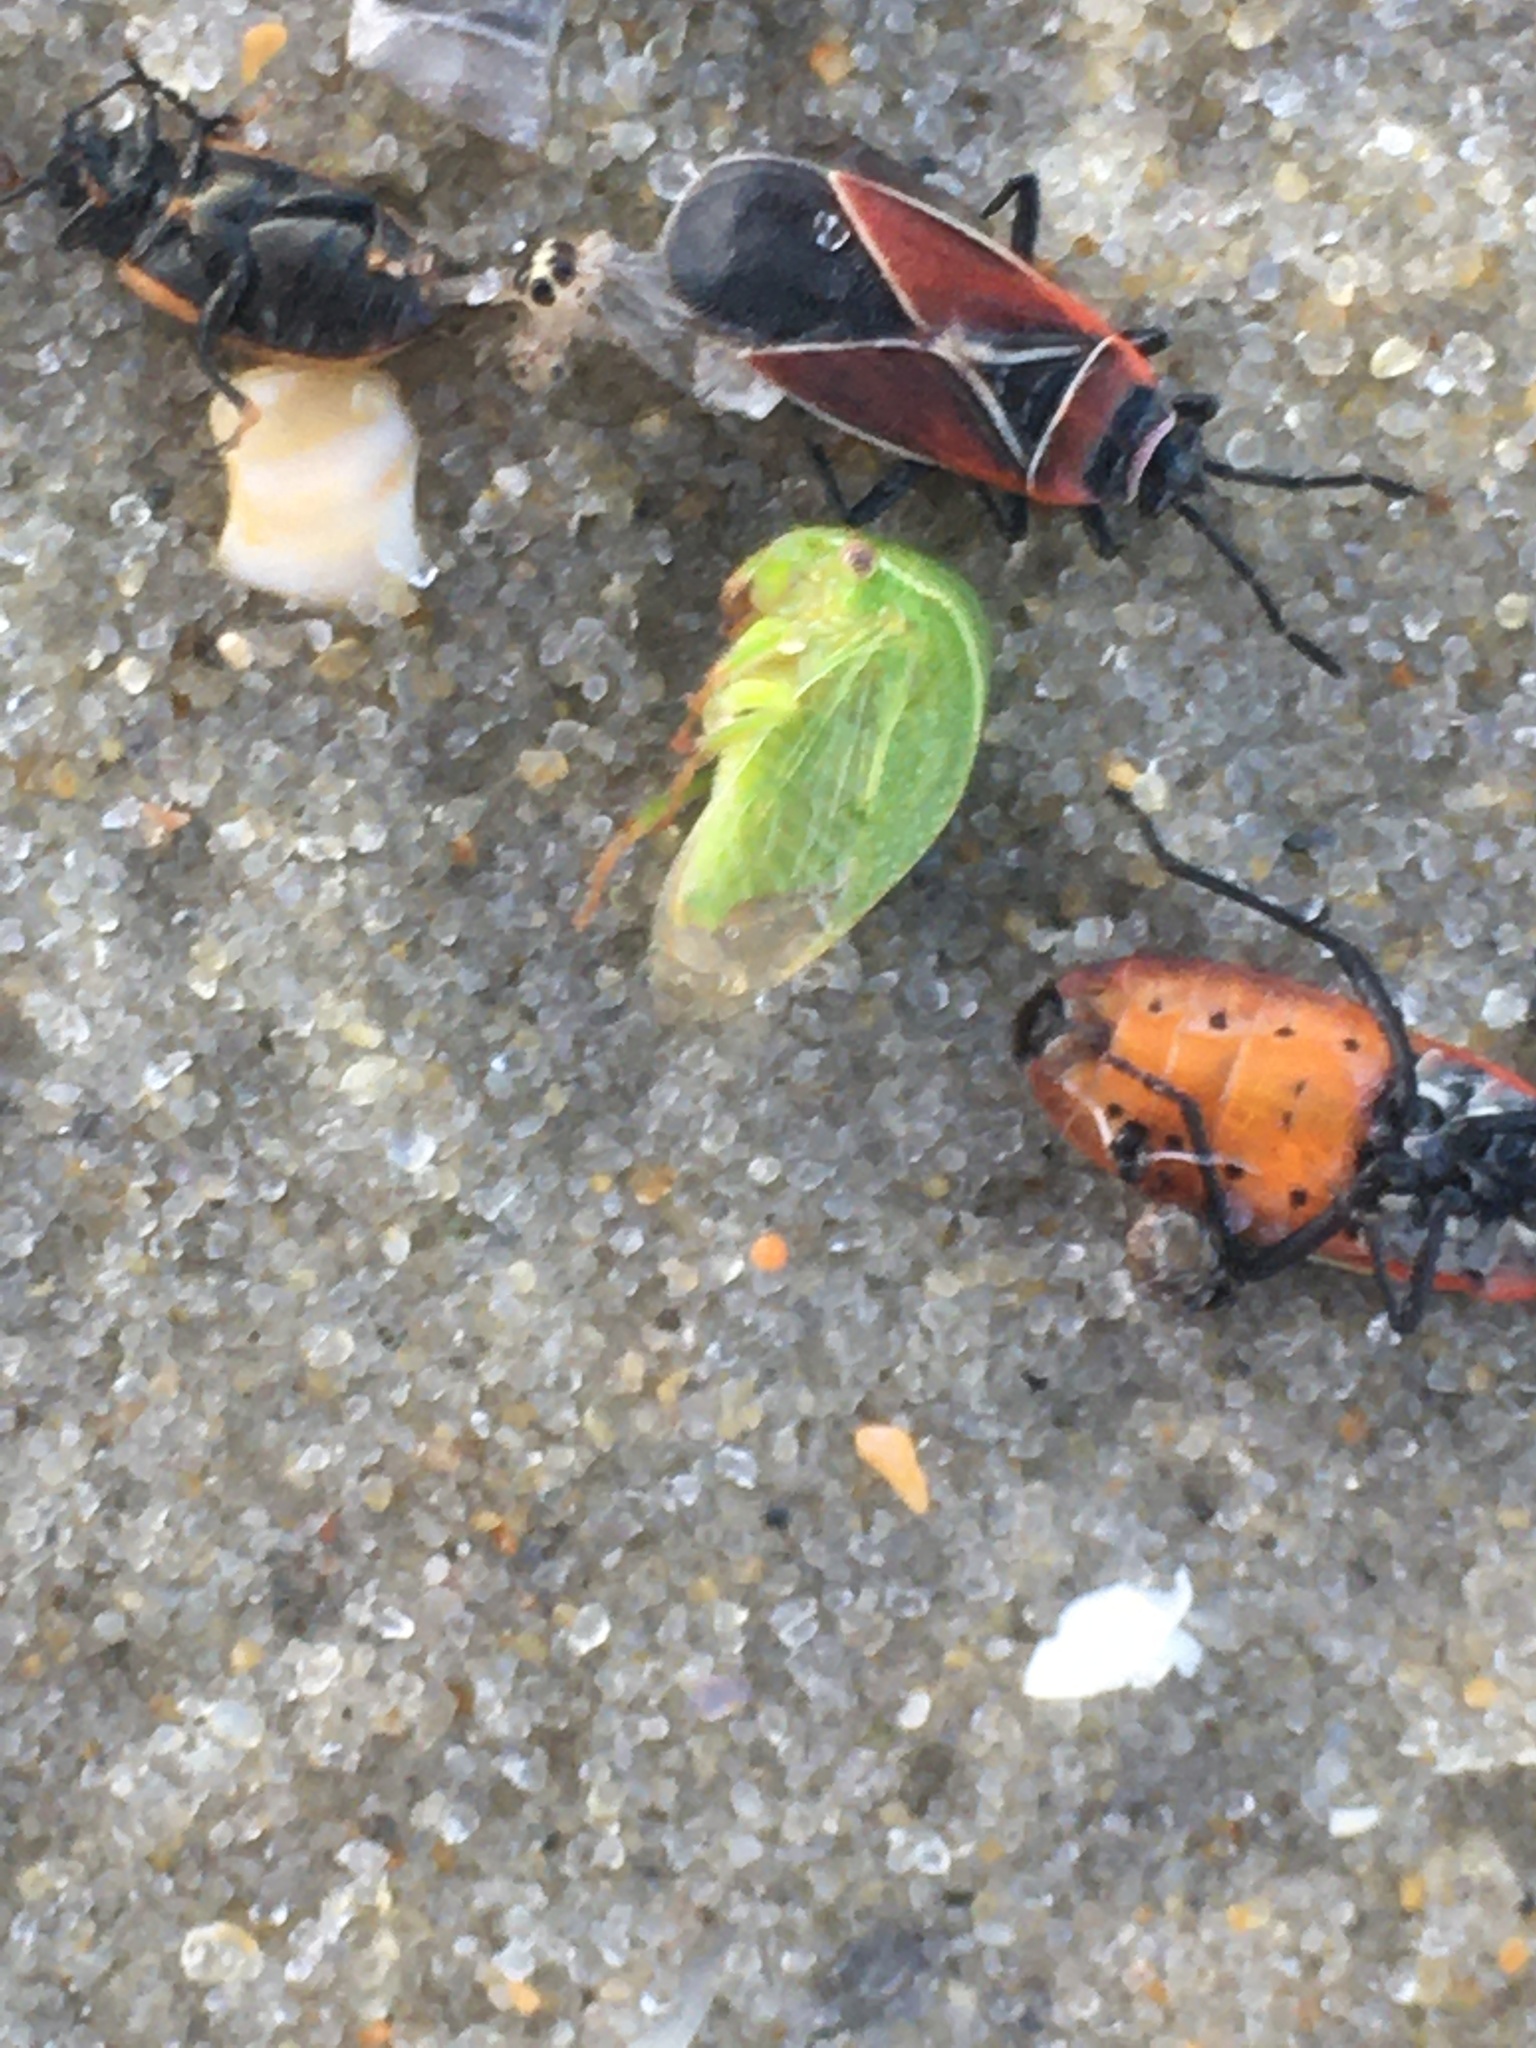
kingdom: Animalia
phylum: Arthropoda
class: Insecta
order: Hemiptera
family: Membracidae
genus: Spissistilus
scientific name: Spissistilus festina
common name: Membracid bug
